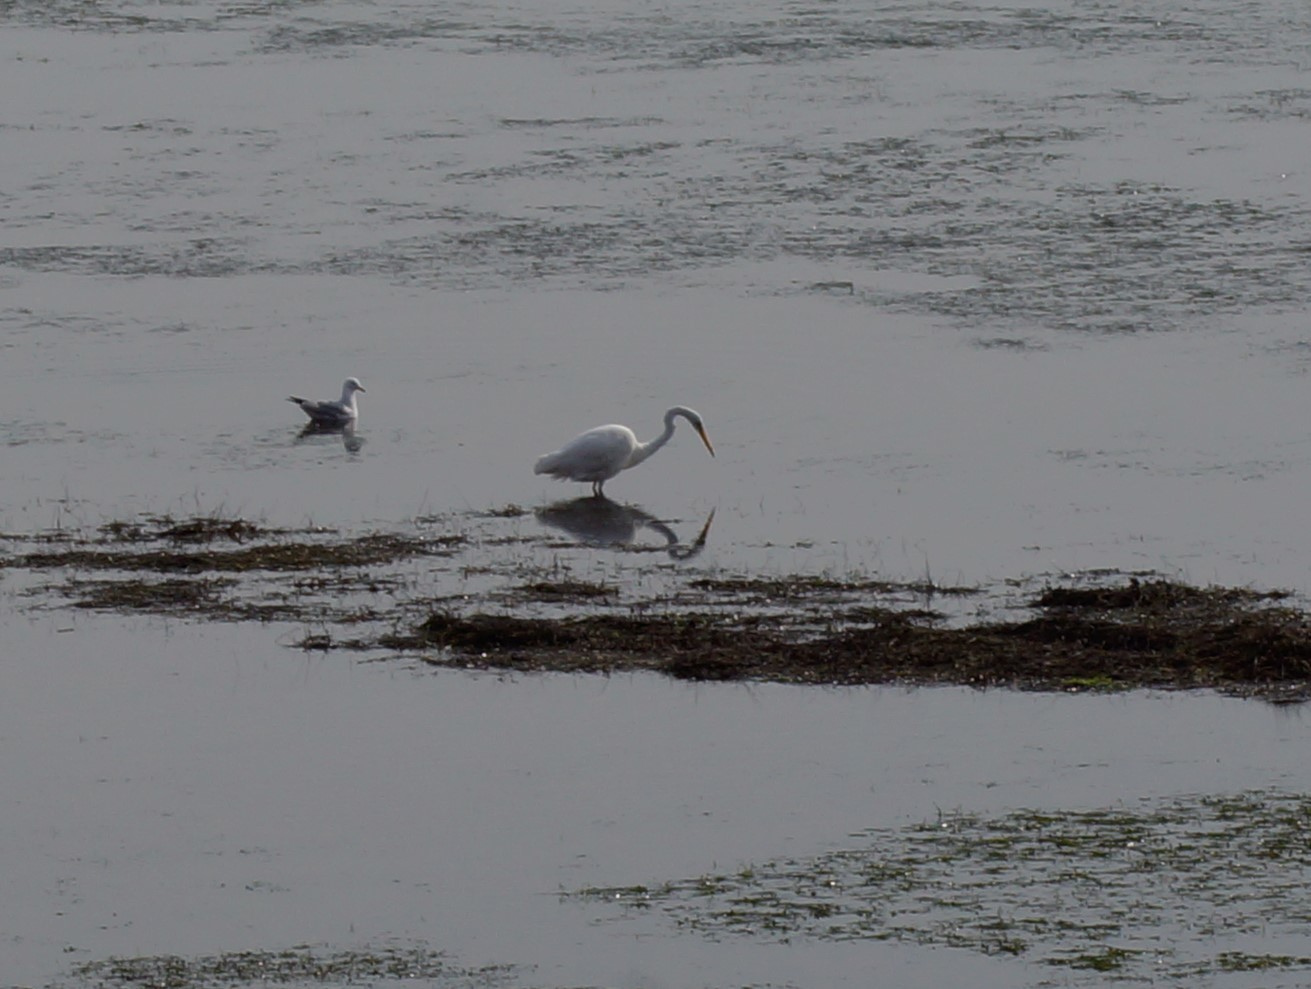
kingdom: Animalia
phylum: Chordata
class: Aves
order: Pelecaniformes
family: Ardeidae
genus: Ardea
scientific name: Ardea alba
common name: Great egret
